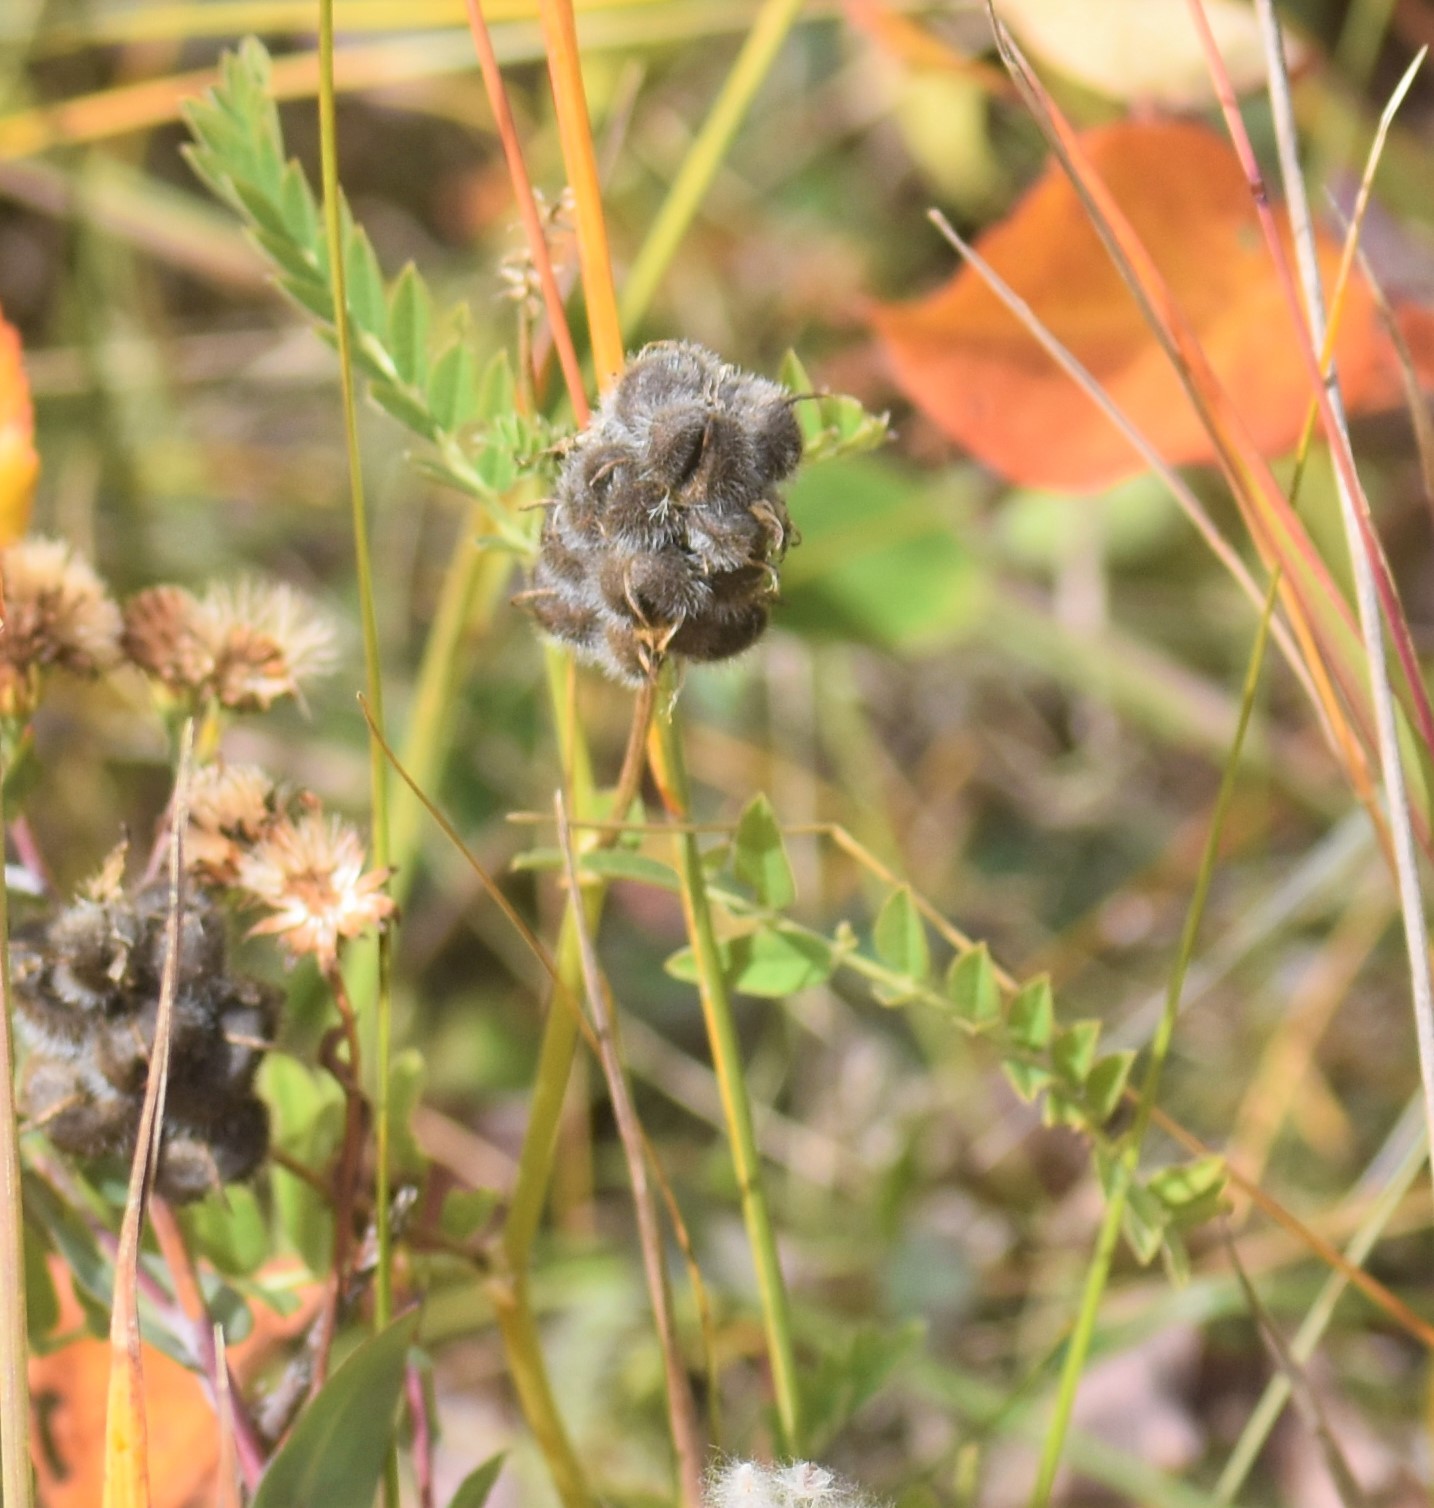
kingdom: Plantae
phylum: Tracheophyta
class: Magnoliopsida
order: Fabales
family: Fabaceae
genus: Astragalus
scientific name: Astragalus cicer
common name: Chick-pea milk-vetch
